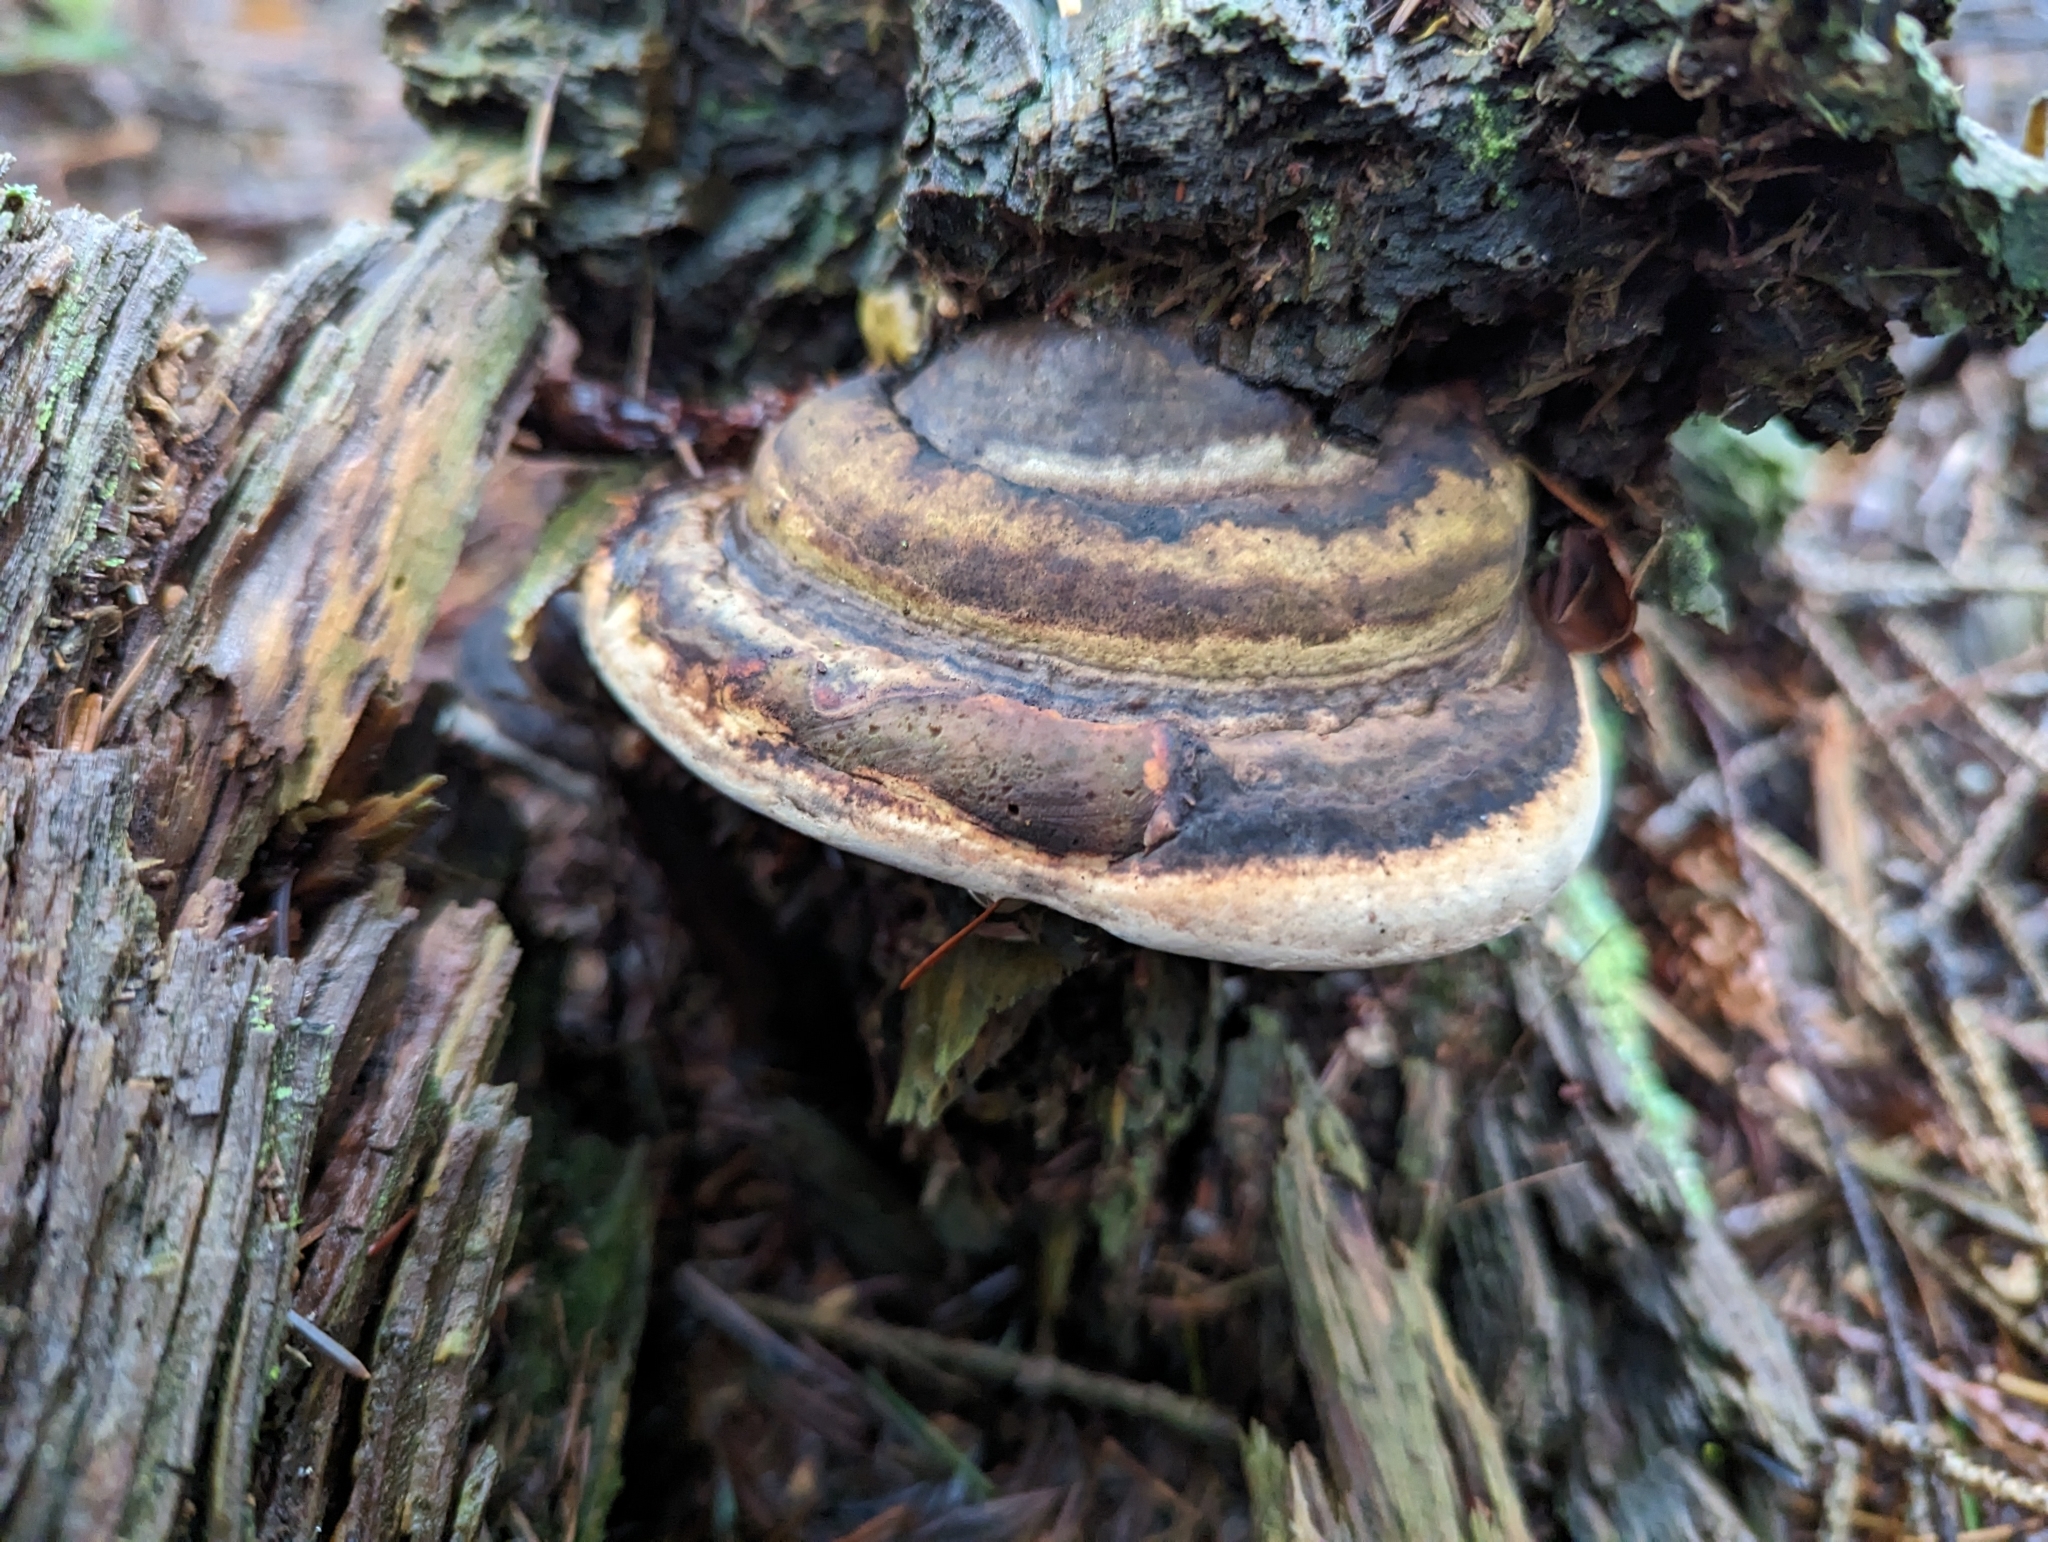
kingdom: Fungi
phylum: Basidiomycota
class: Agaricomycetes
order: Polyporales
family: Fomitopsidaceae
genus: Fomitopsis
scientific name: Fomitopsis ochracea
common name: American brown fomitopsis
